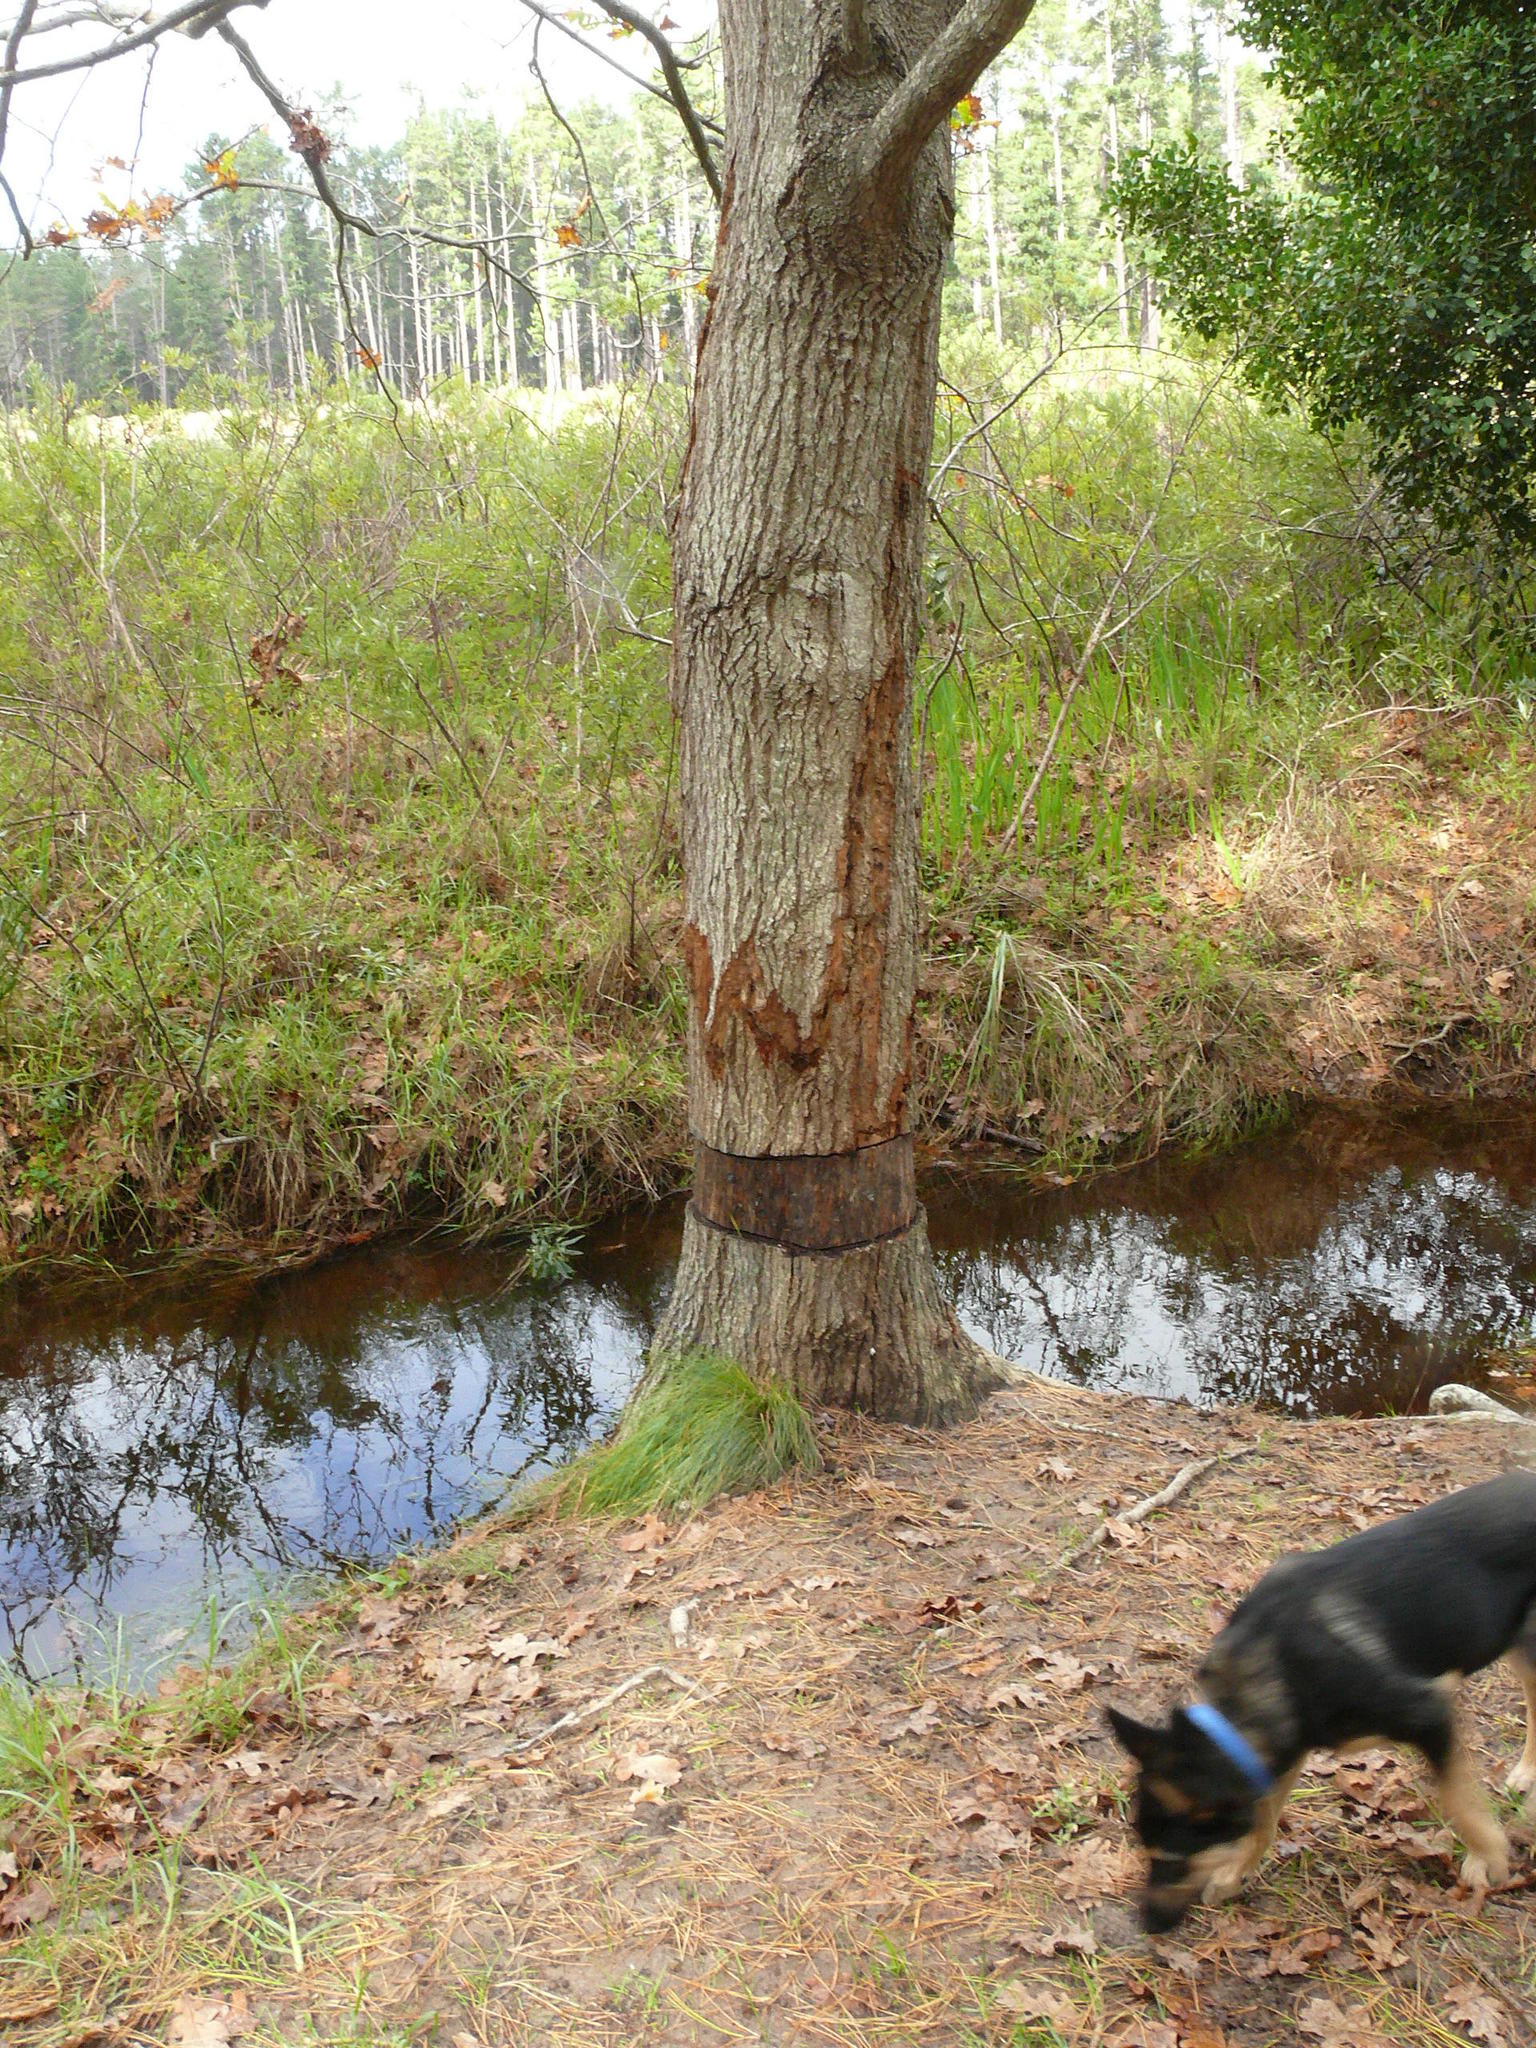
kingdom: Plantae
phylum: Tracheophyta
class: Magnoliopsida
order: Fagales
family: Fagaceae
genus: Quercus
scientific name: Quercus robur
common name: Pedunculate oak
